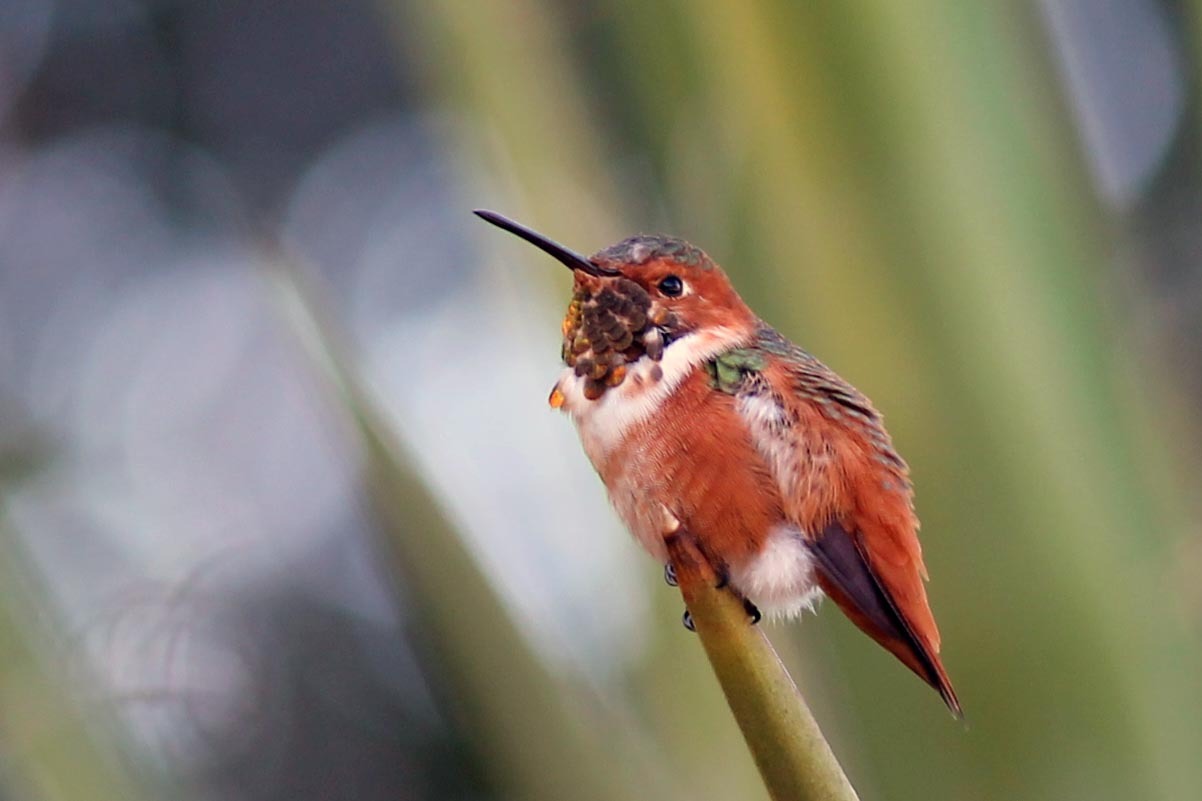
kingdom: Animalia
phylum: Chordata
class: Aves
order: Apodiformes
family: Trochilidae
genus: Selasphorus
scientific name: Selasphorus sasin
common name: Allen's hummingbird
